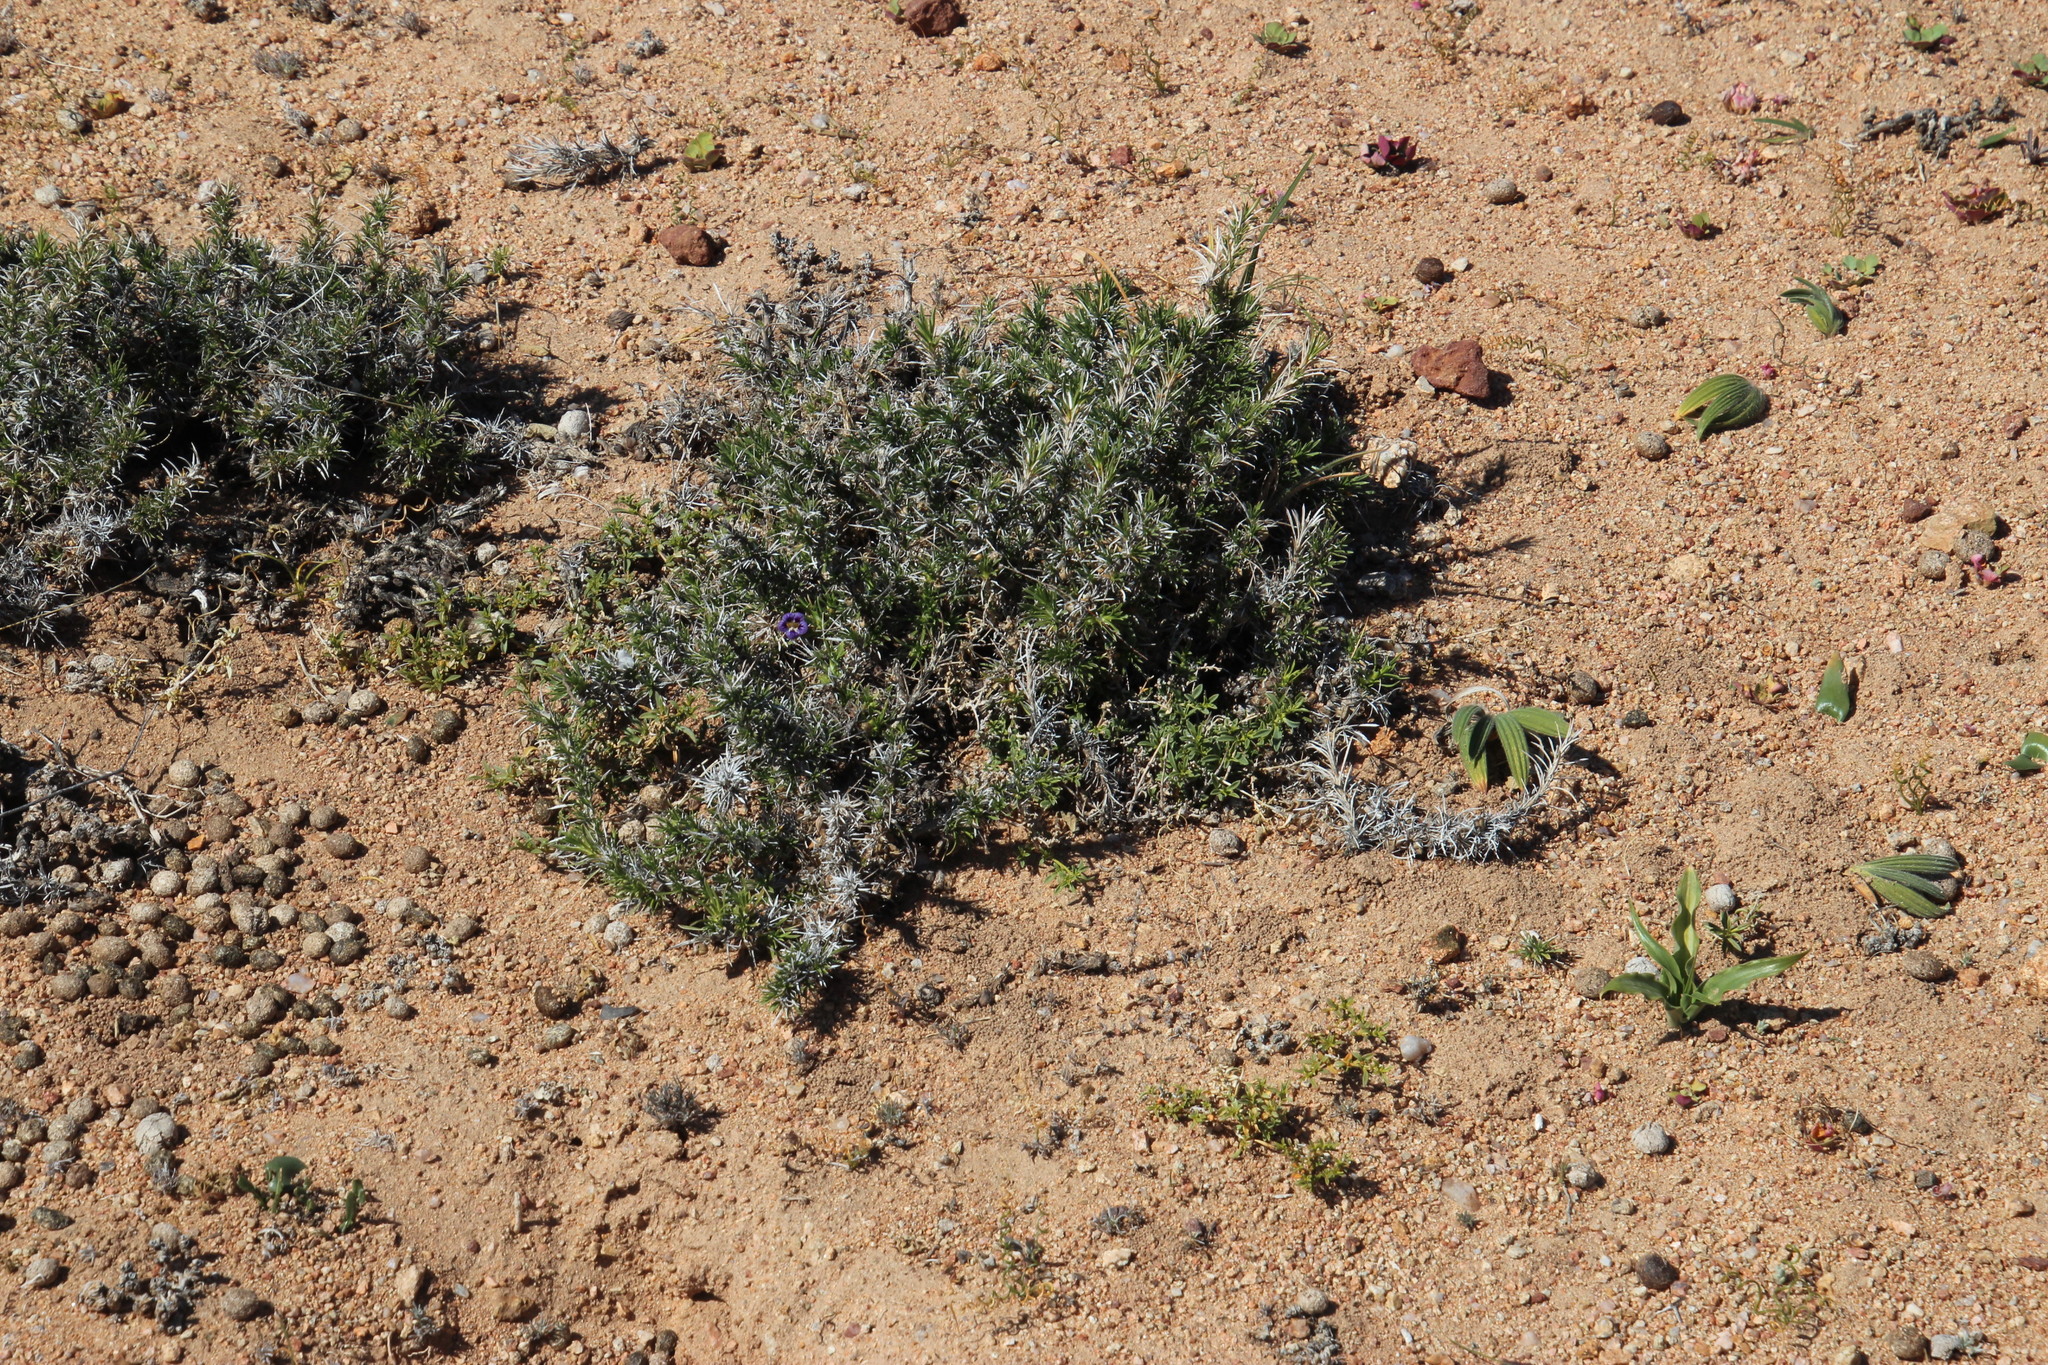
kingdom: Plantae
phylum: Tracheophyta
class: Magnoliopsida
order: Lamiales
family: Scrophulariaceae
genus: Aptosimum
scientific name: Aptosimum spinescens
